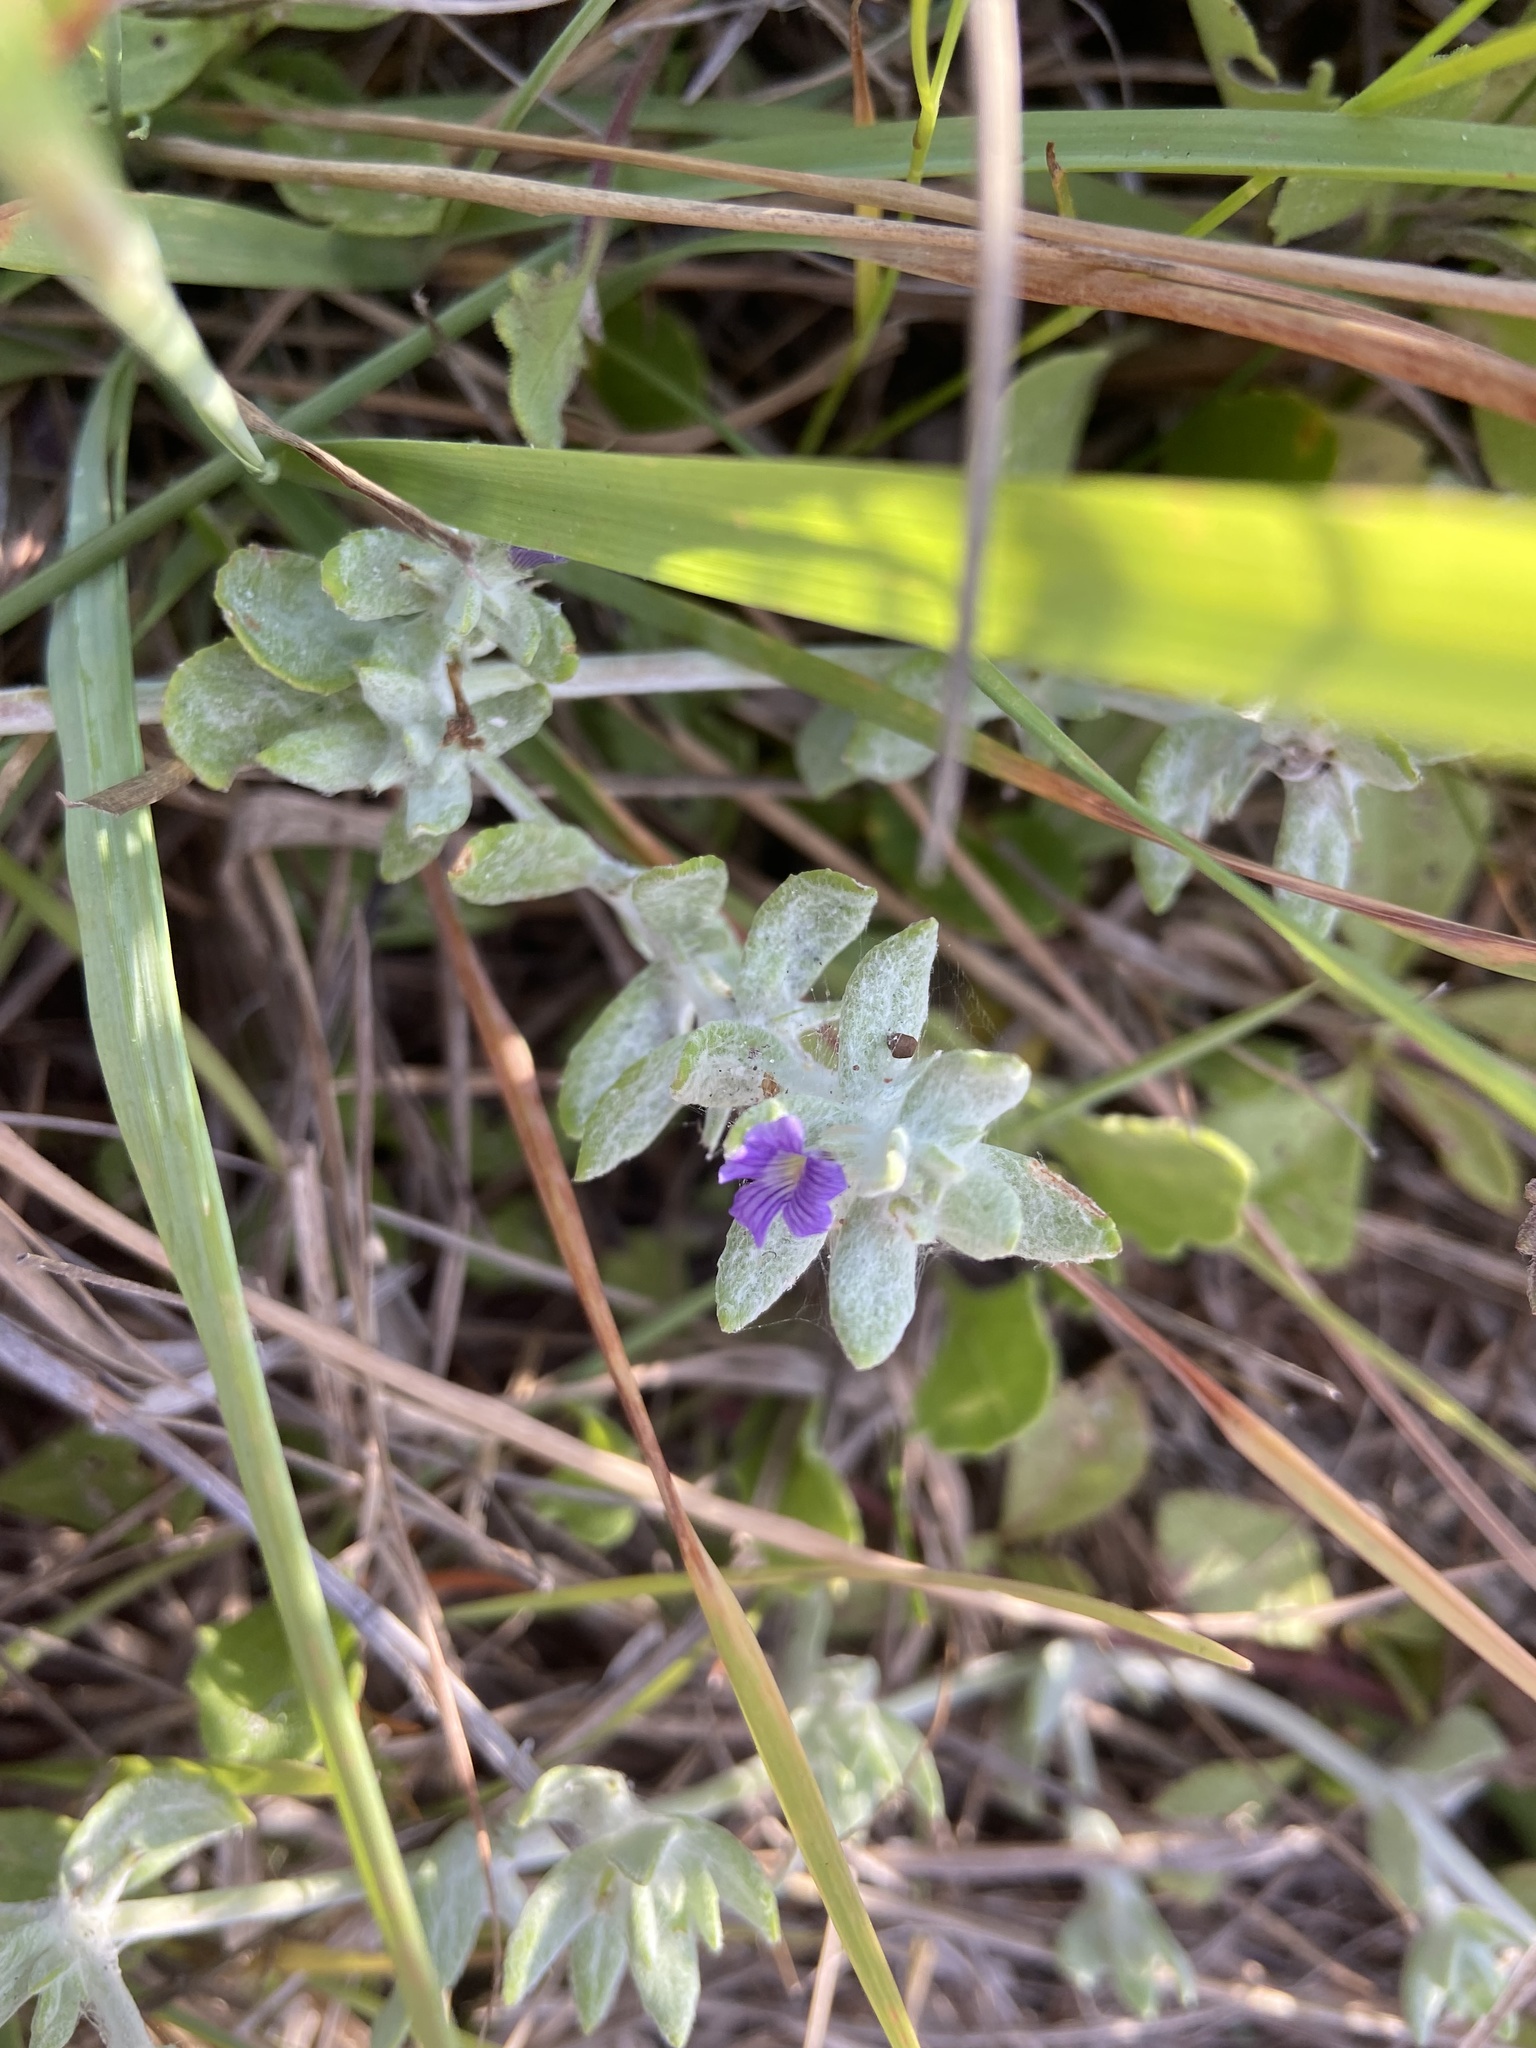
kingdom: Plantae
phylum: Tracheophyta
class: Magnoliopsida
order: Lamiales
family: Plantaginaceae
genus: Stemodia
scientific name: Stemodia lanata
